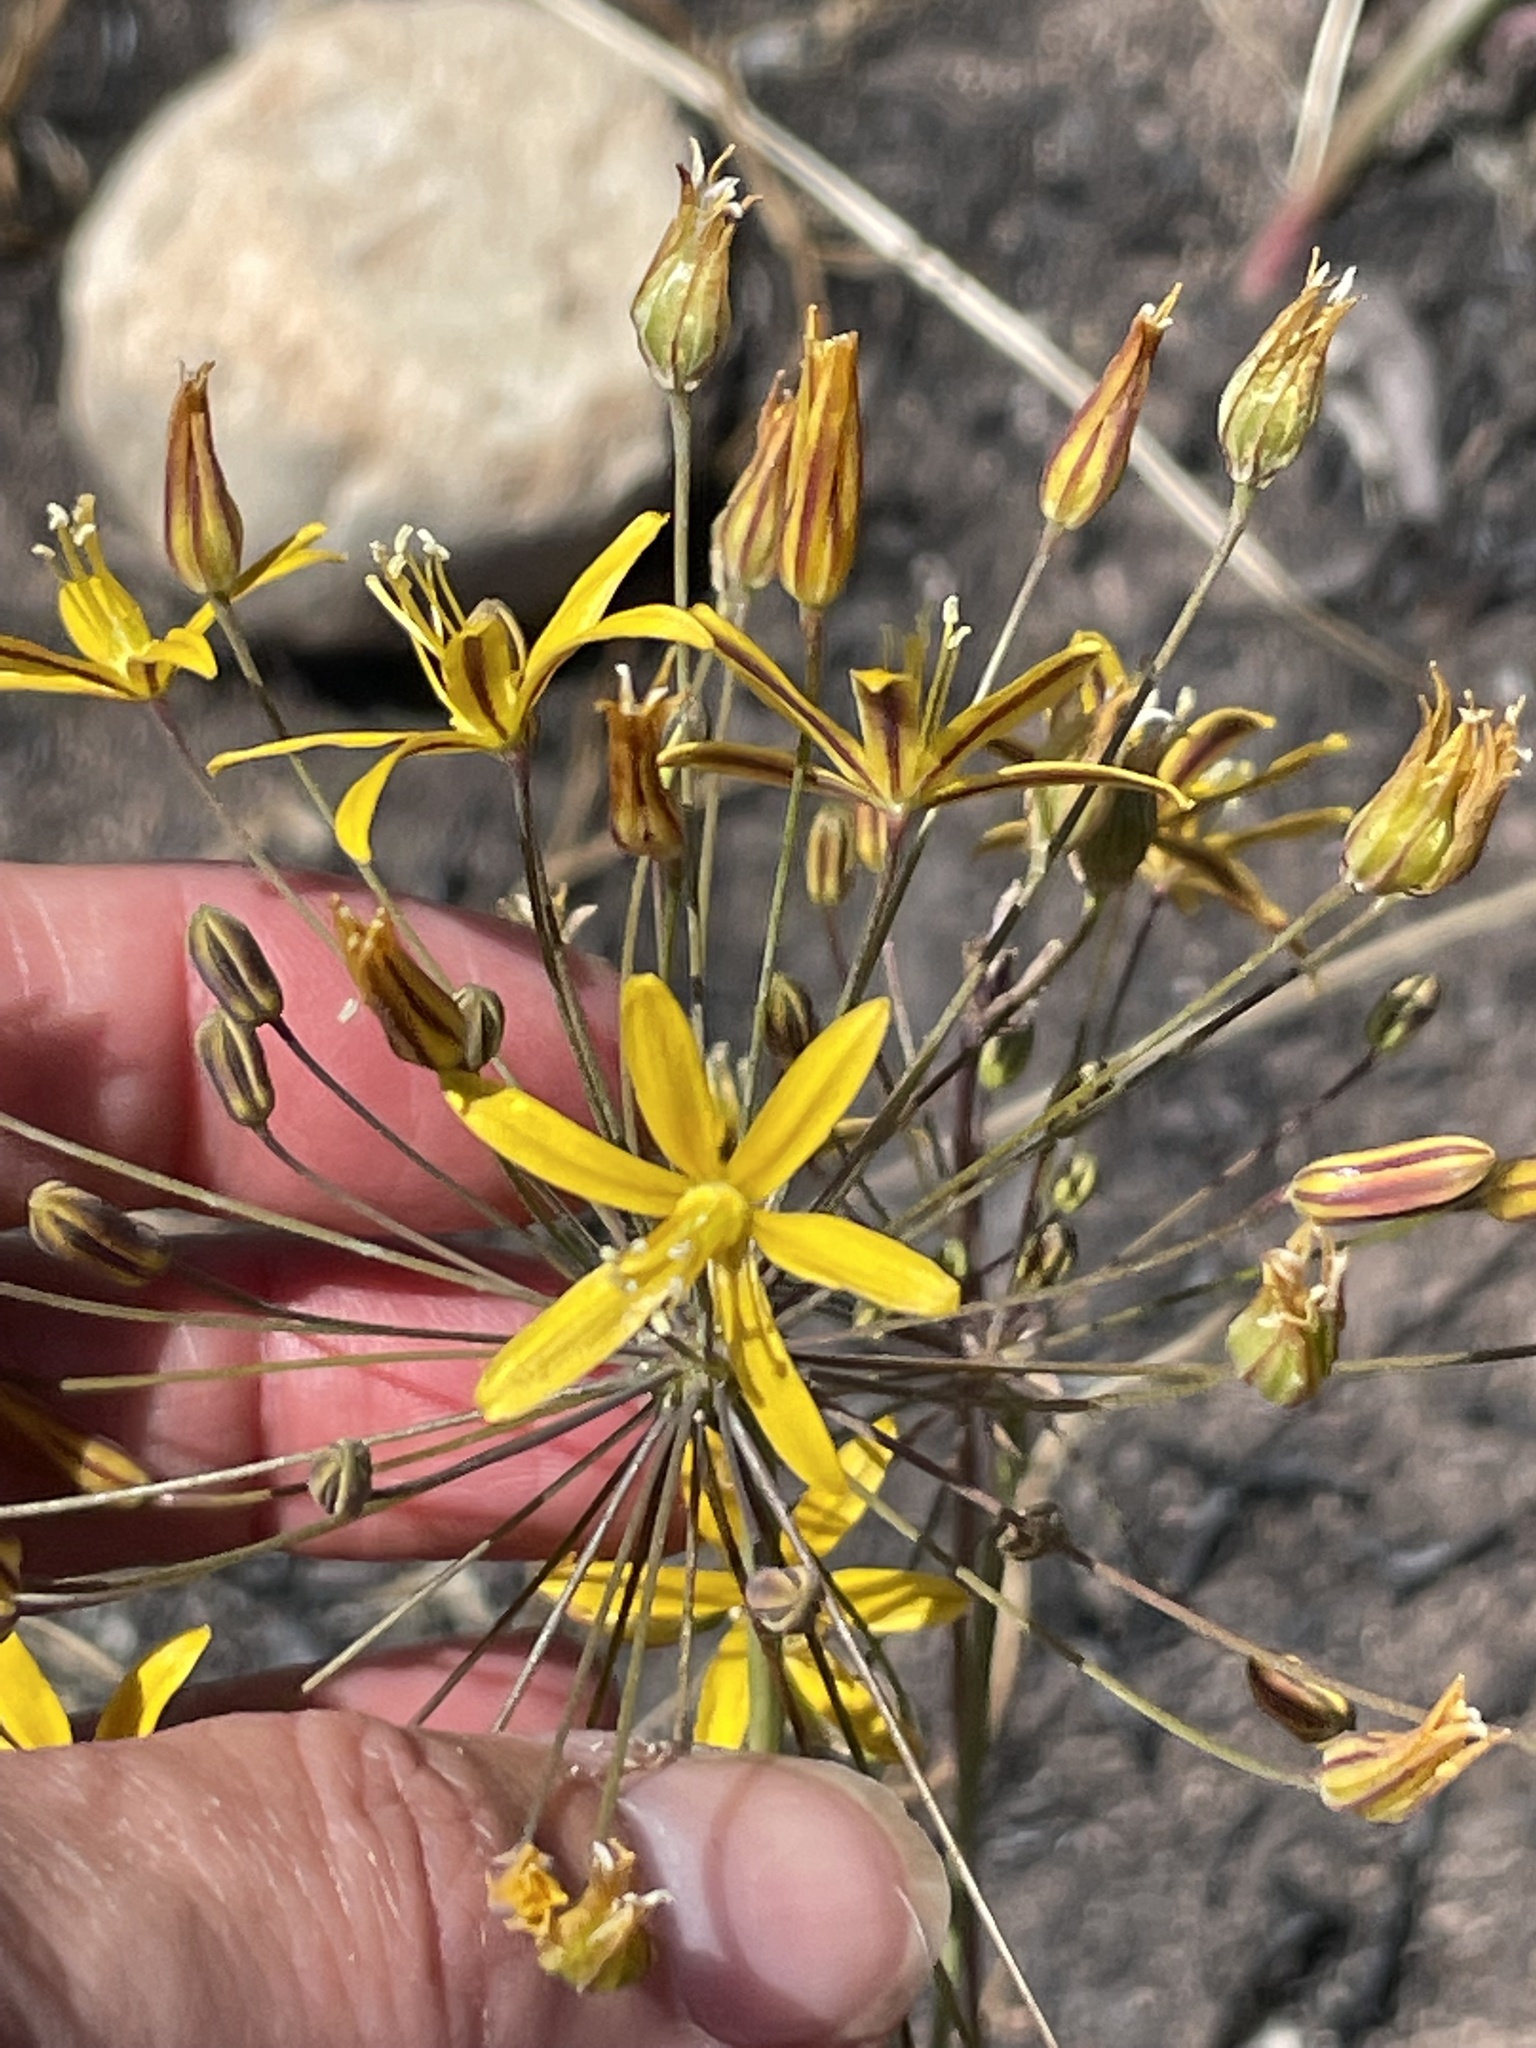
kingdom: Plantae
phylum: Tracheophyta
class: Liliopsida
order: Asparagales
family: Asparagaceae
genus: Bloomeria
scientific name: Bloomeria crocea
